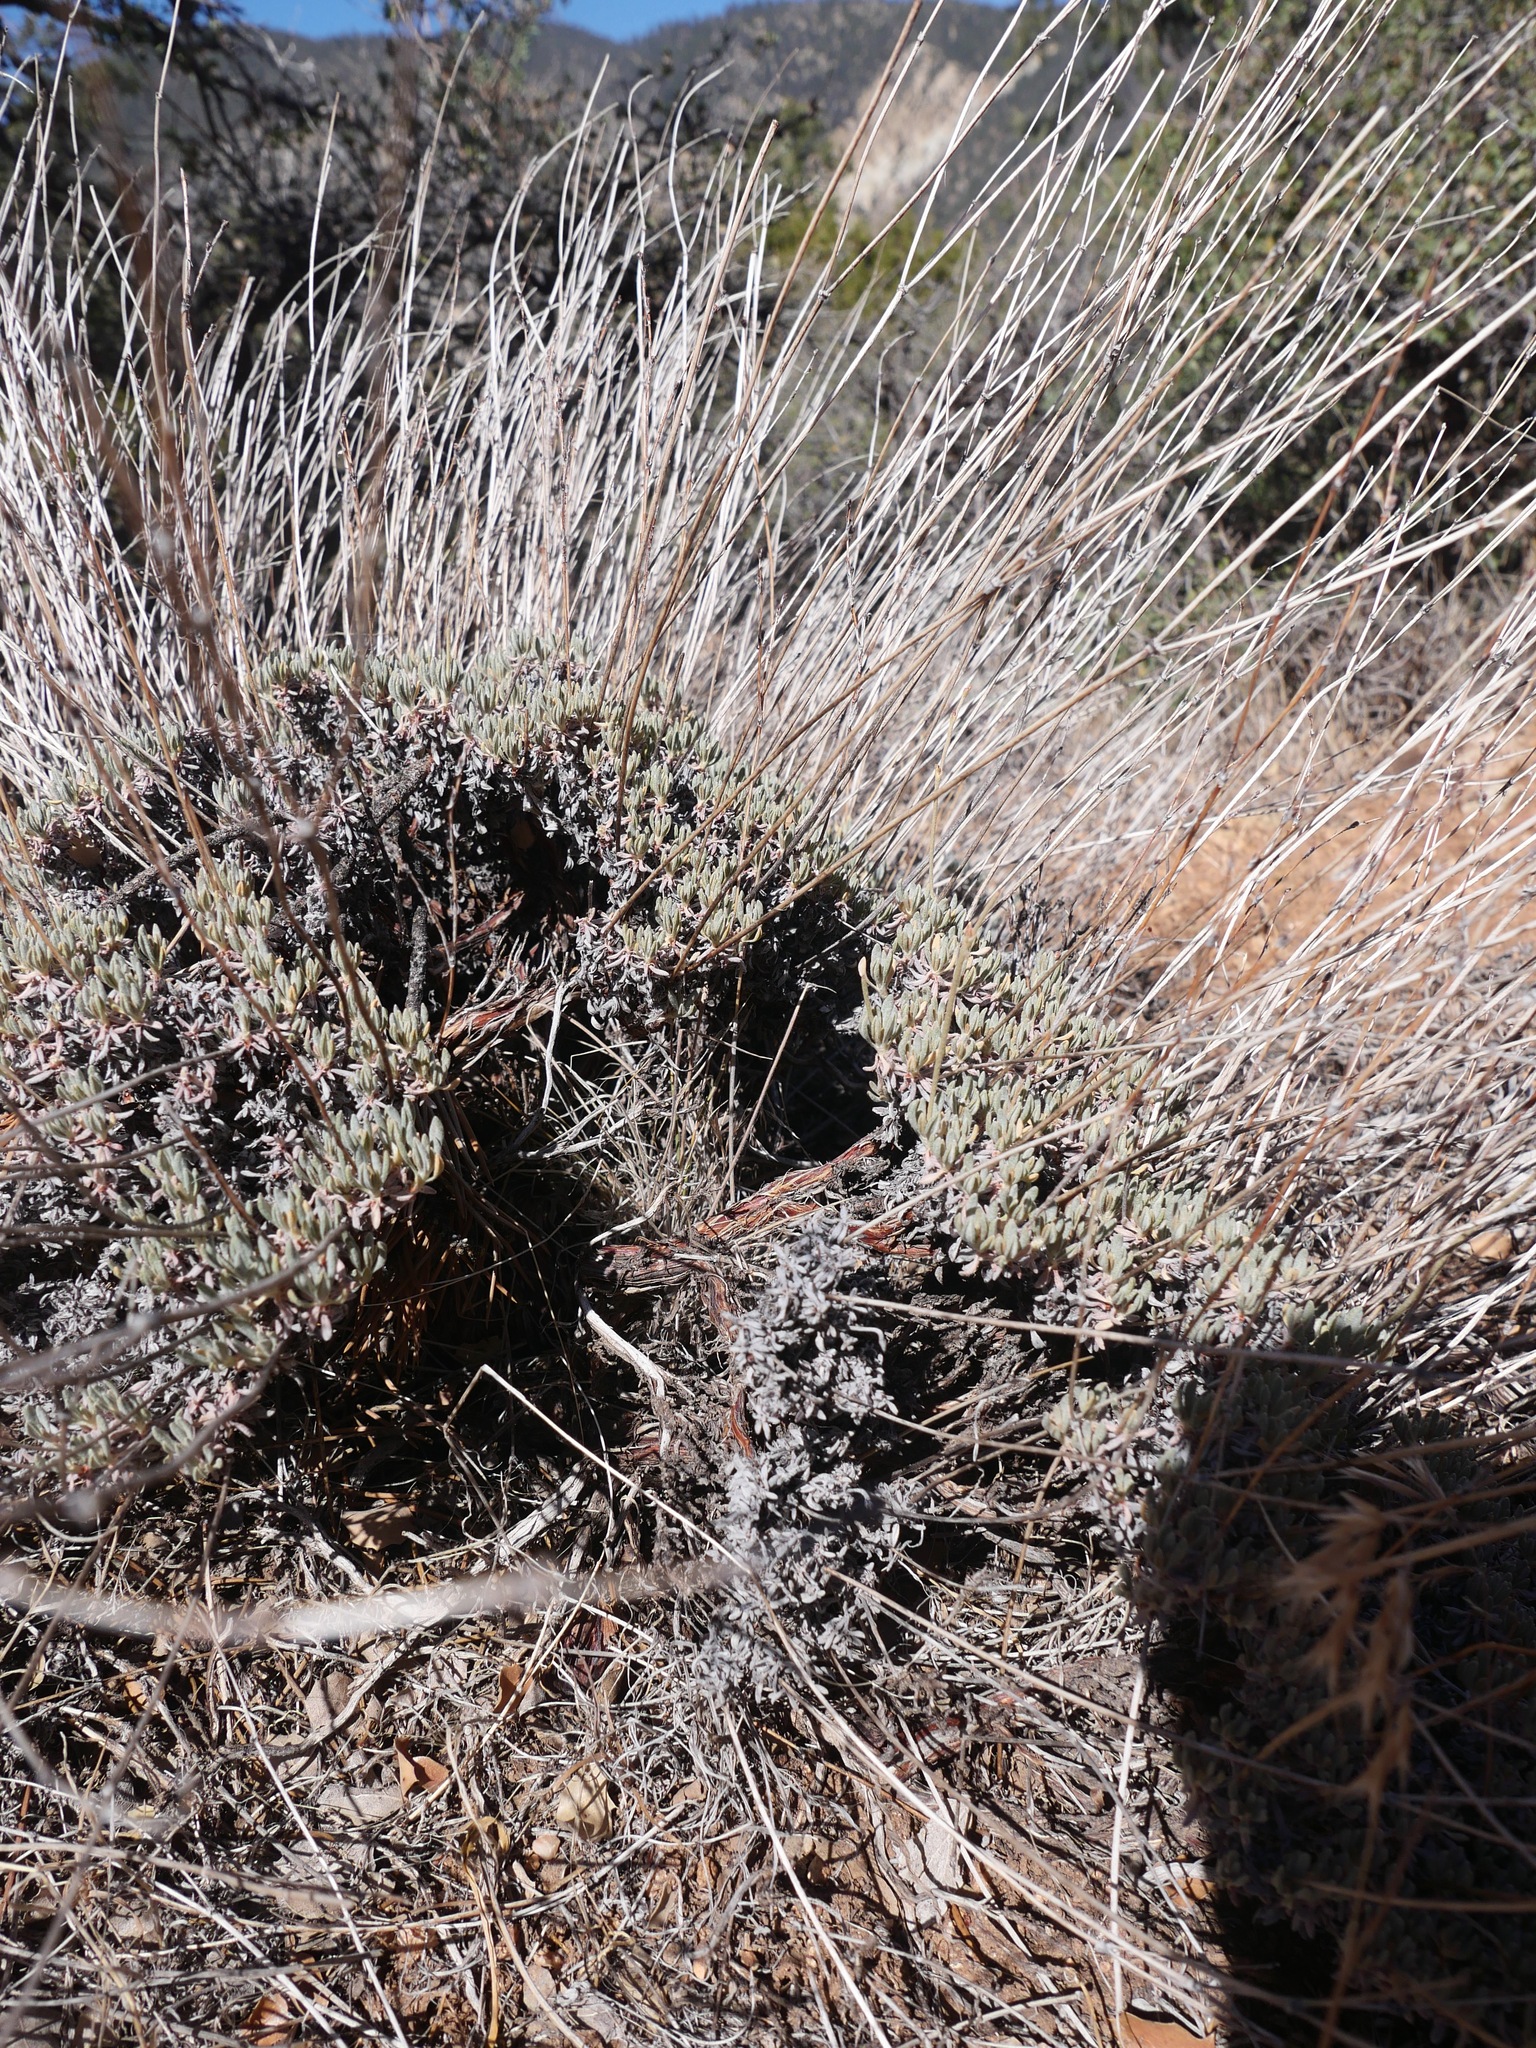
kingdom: Plantae
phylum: Tracheophyta
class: Magnoliopsida
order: Caryophyllales
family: Polygonaceae
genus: Eriogonum
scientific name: Eriogonum wrightii
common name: Bastard-sage
